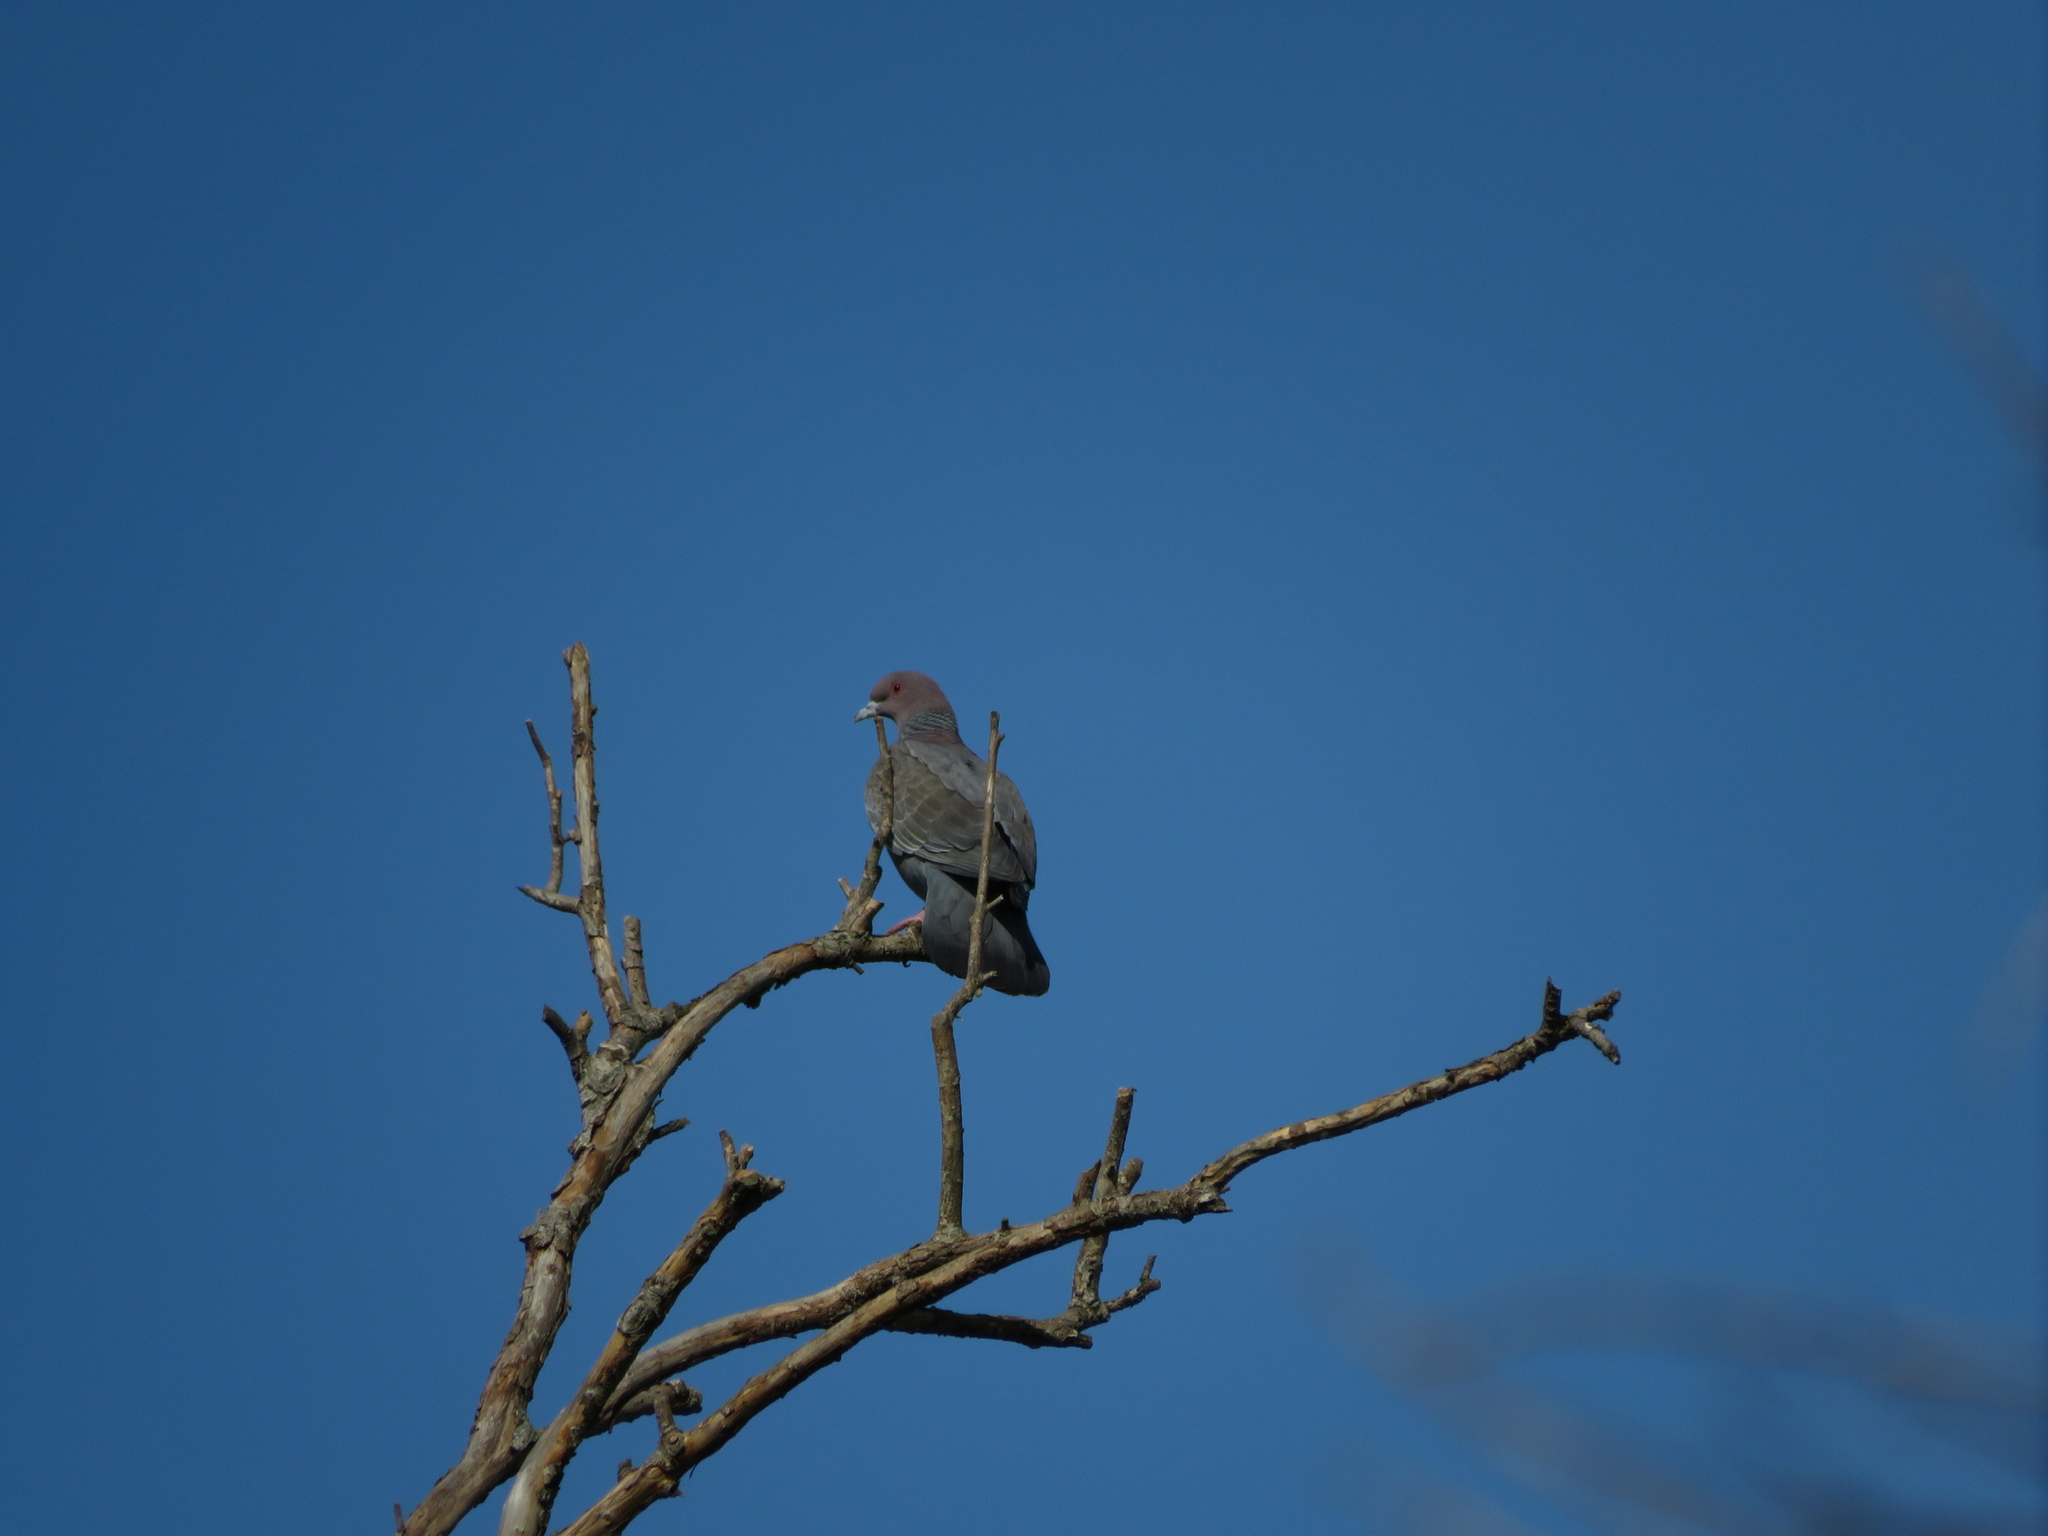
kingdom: Animalia
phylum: Chordata
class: Aves
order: Columbiformes
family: Columbidae
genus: Patagioenas
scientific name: Patagioenas picazuro
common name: Picazuro pigeon
